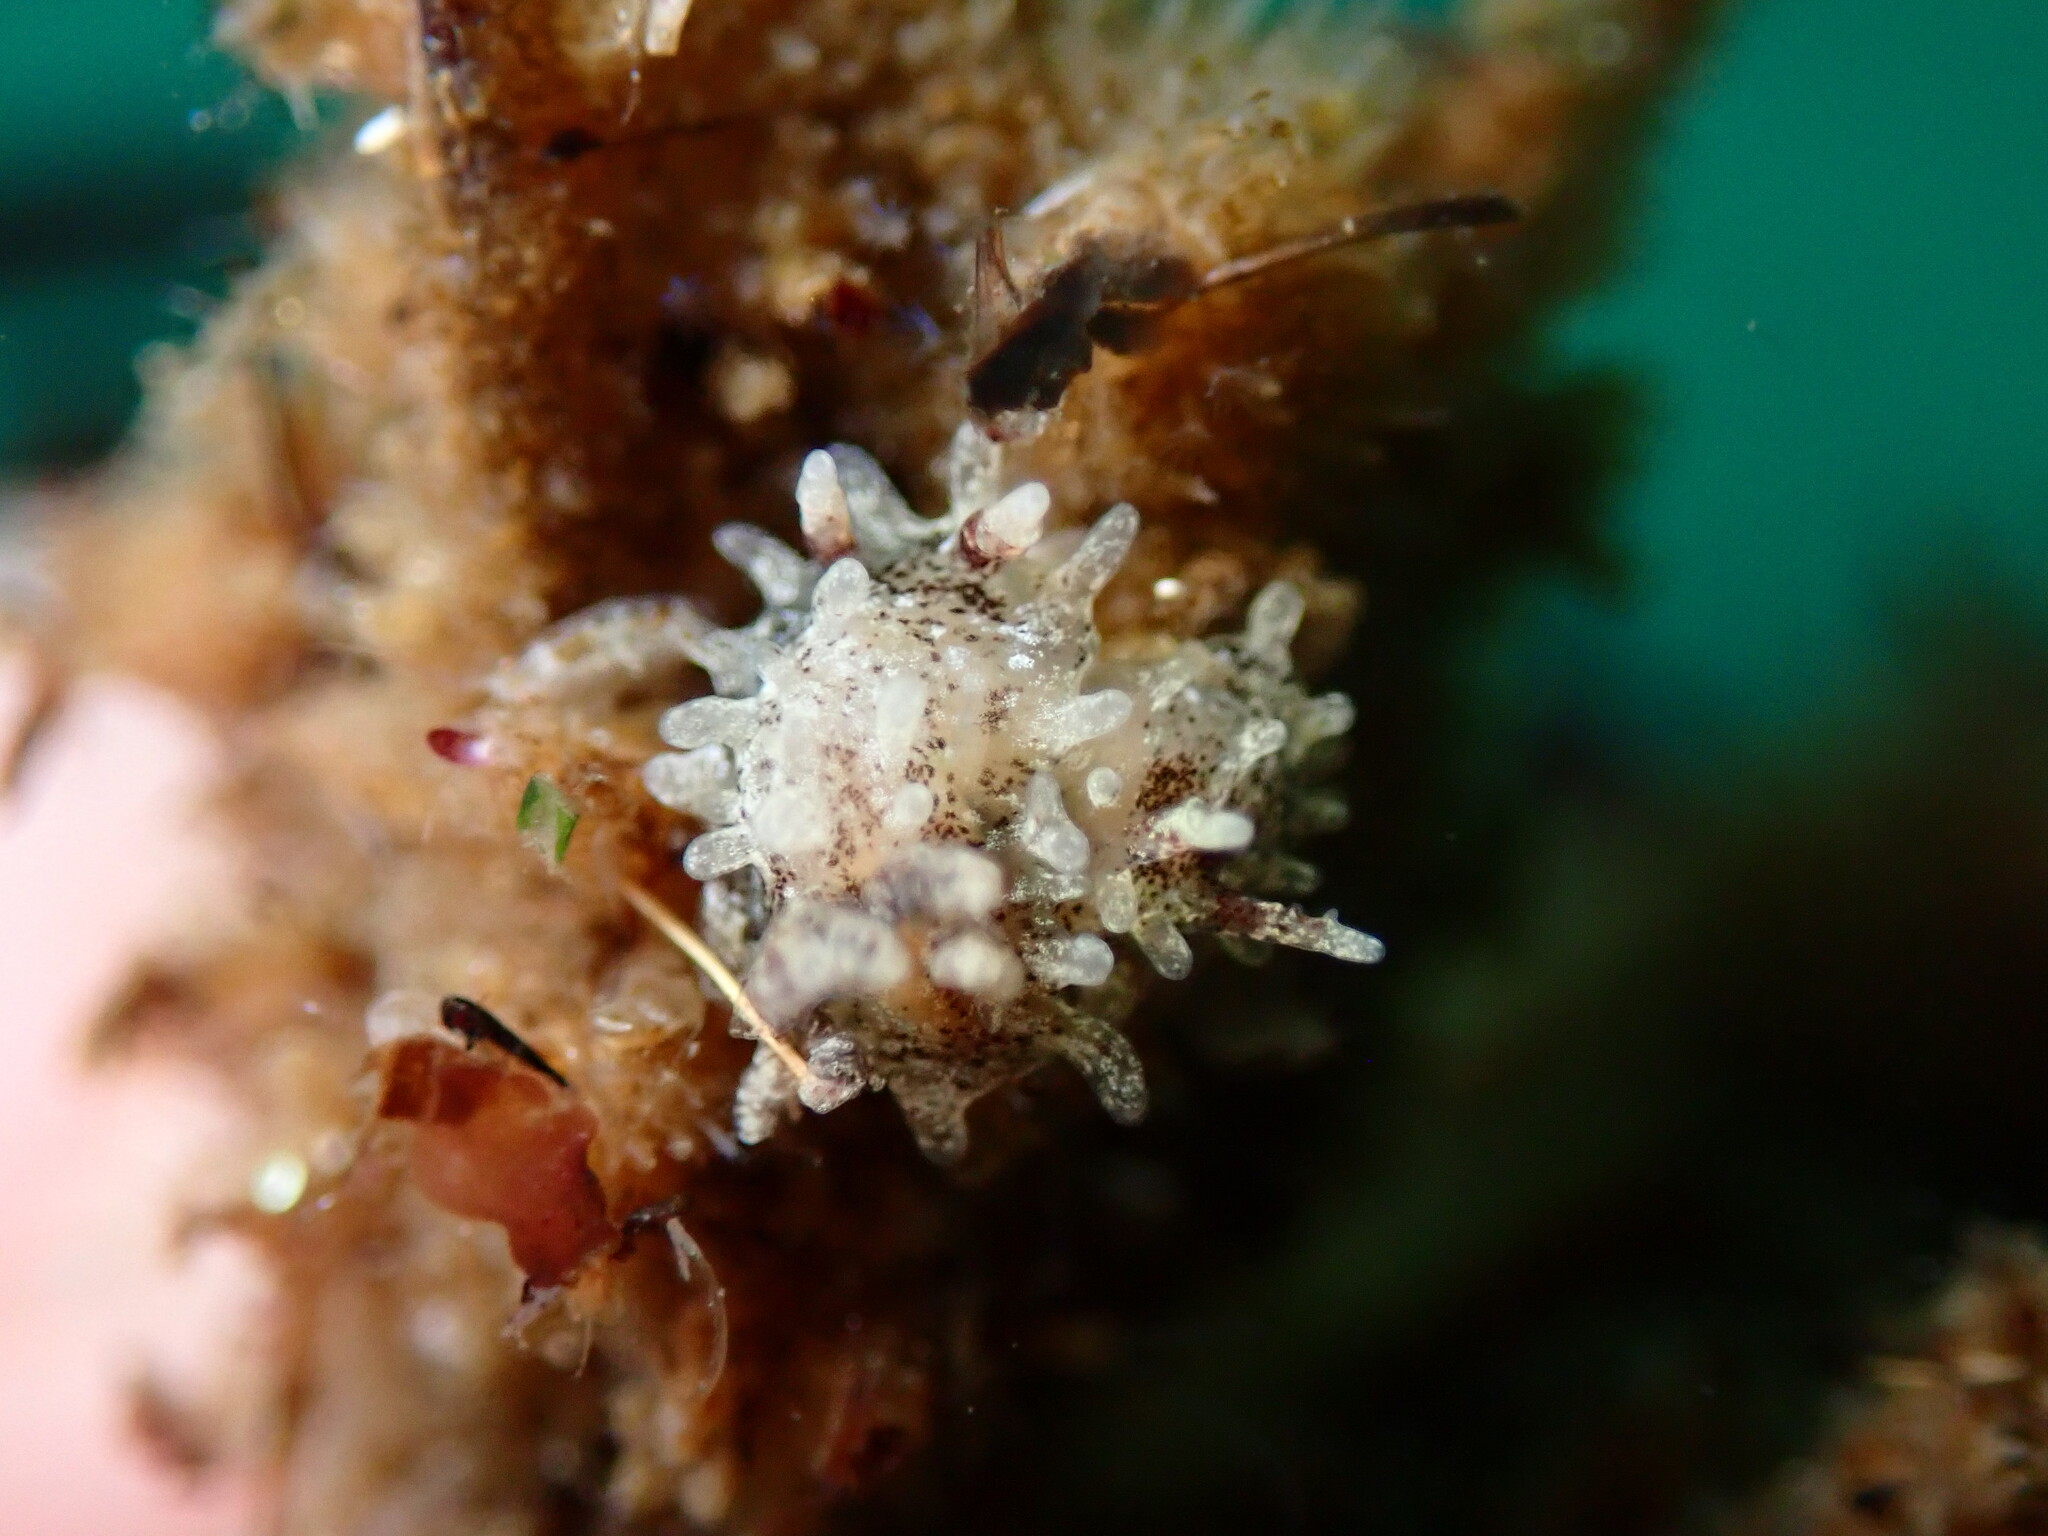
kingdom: Animalia
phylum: Mollusca
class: Gastropoda
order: Nudibranchia
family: Goniodorididae
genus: Okenia
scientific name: Okenia
